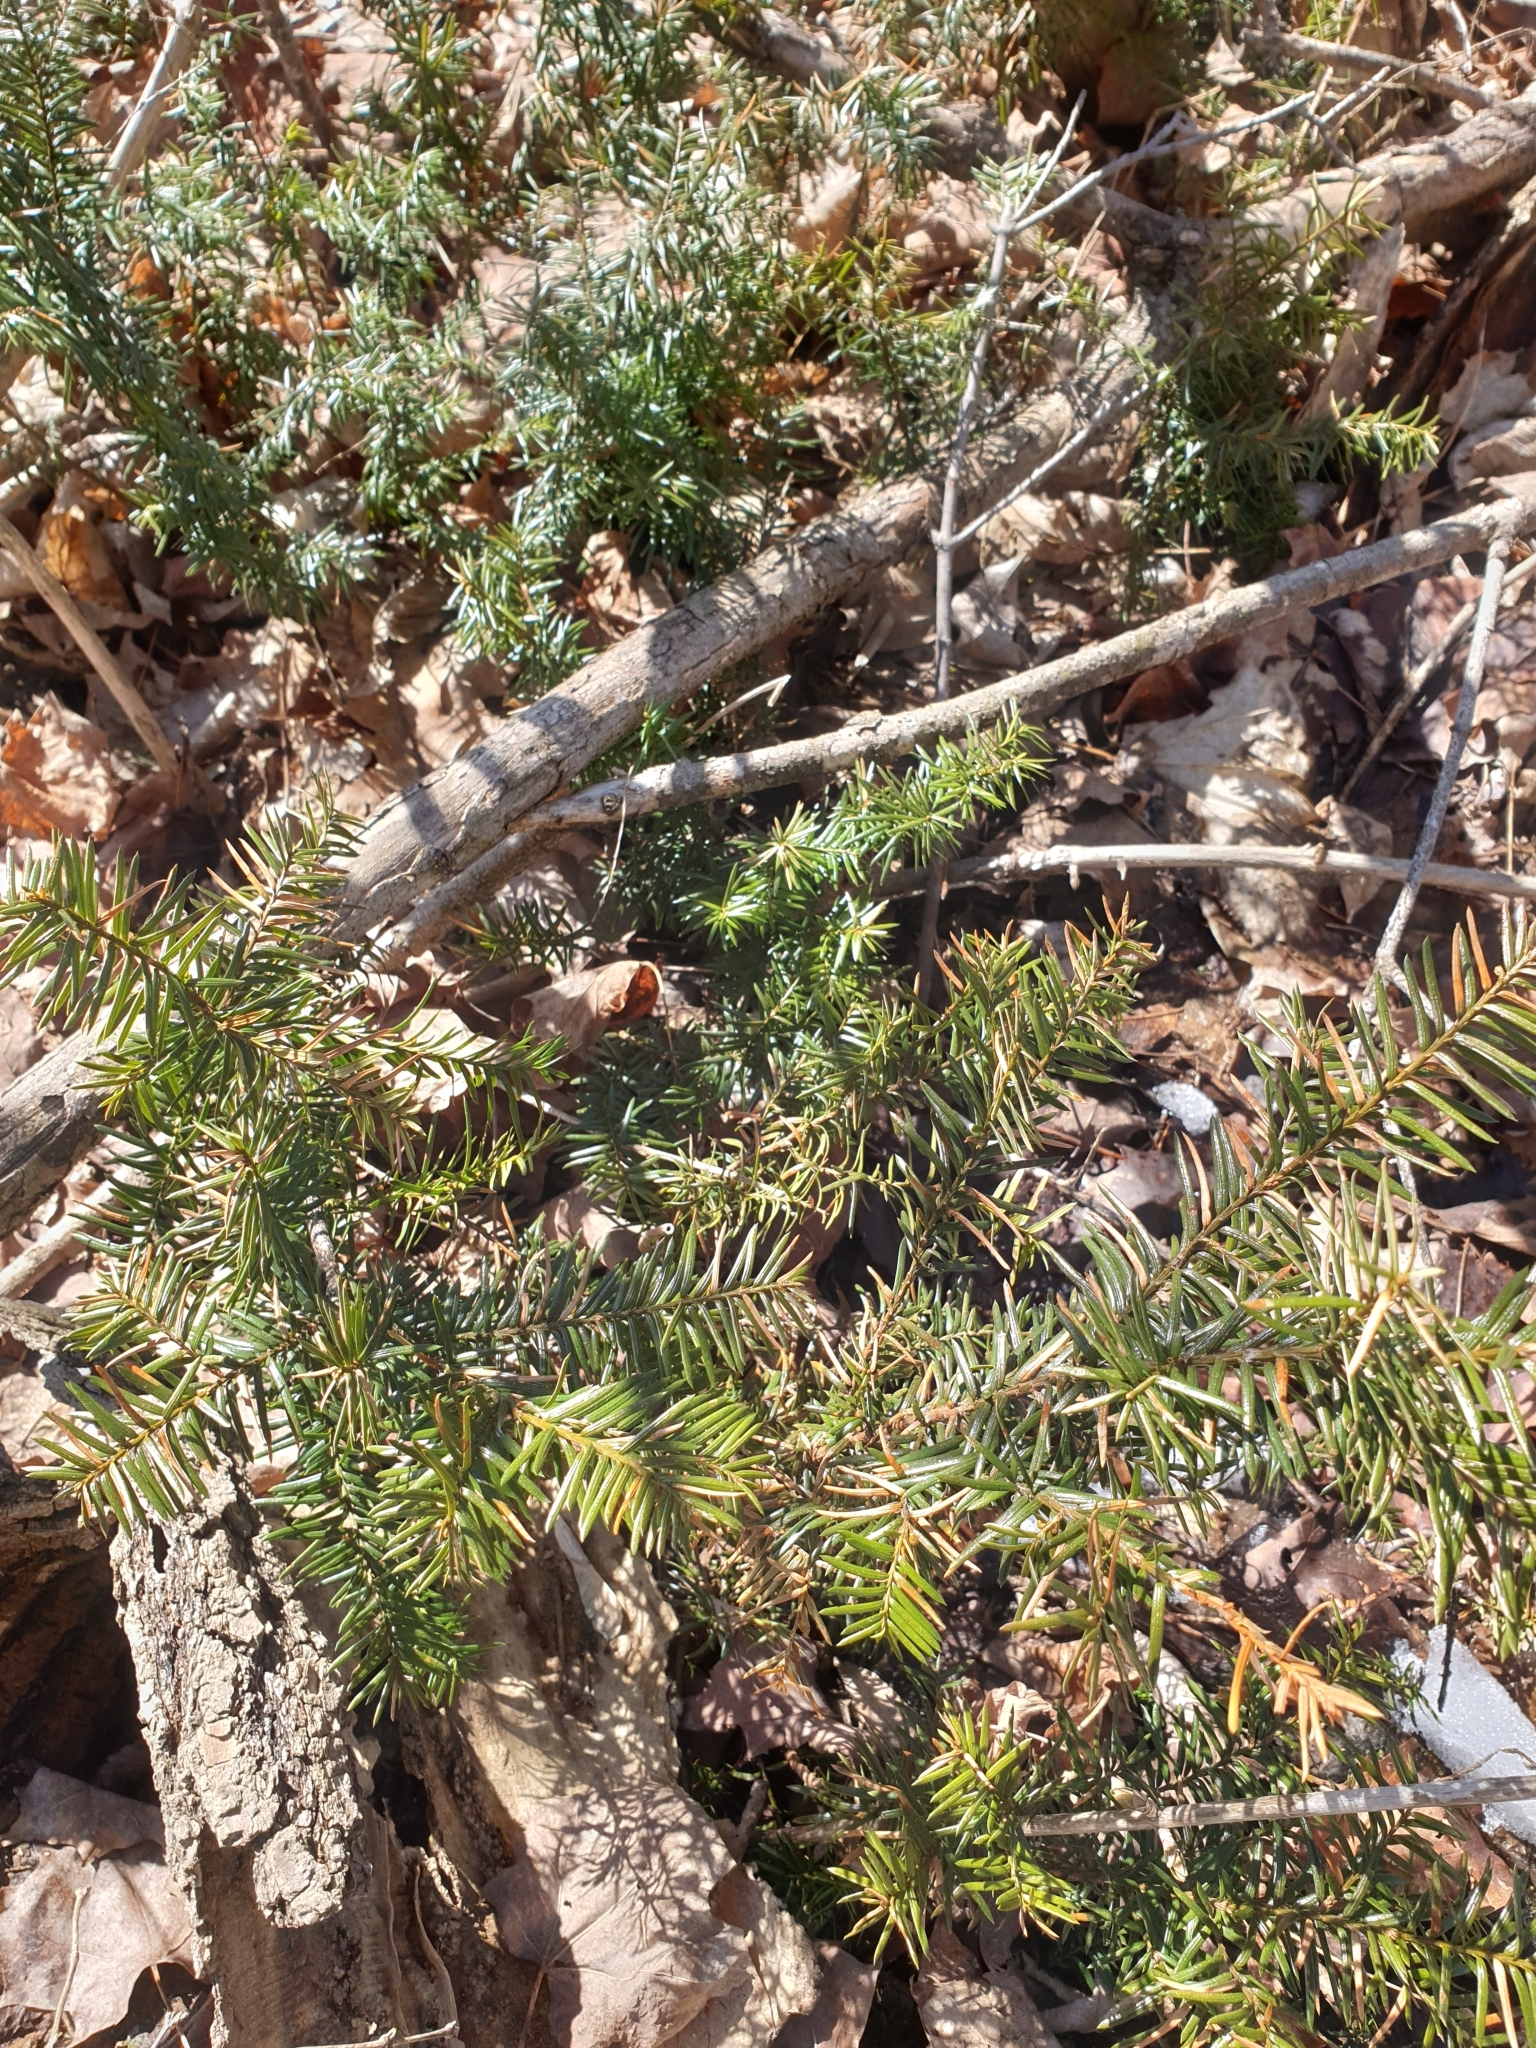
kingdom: Plantae
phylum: Tracheophyta
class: Pinopsida
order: Pinales
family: Taxaceae
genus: Taxus
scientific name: Taxus canadensis
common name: American yew
